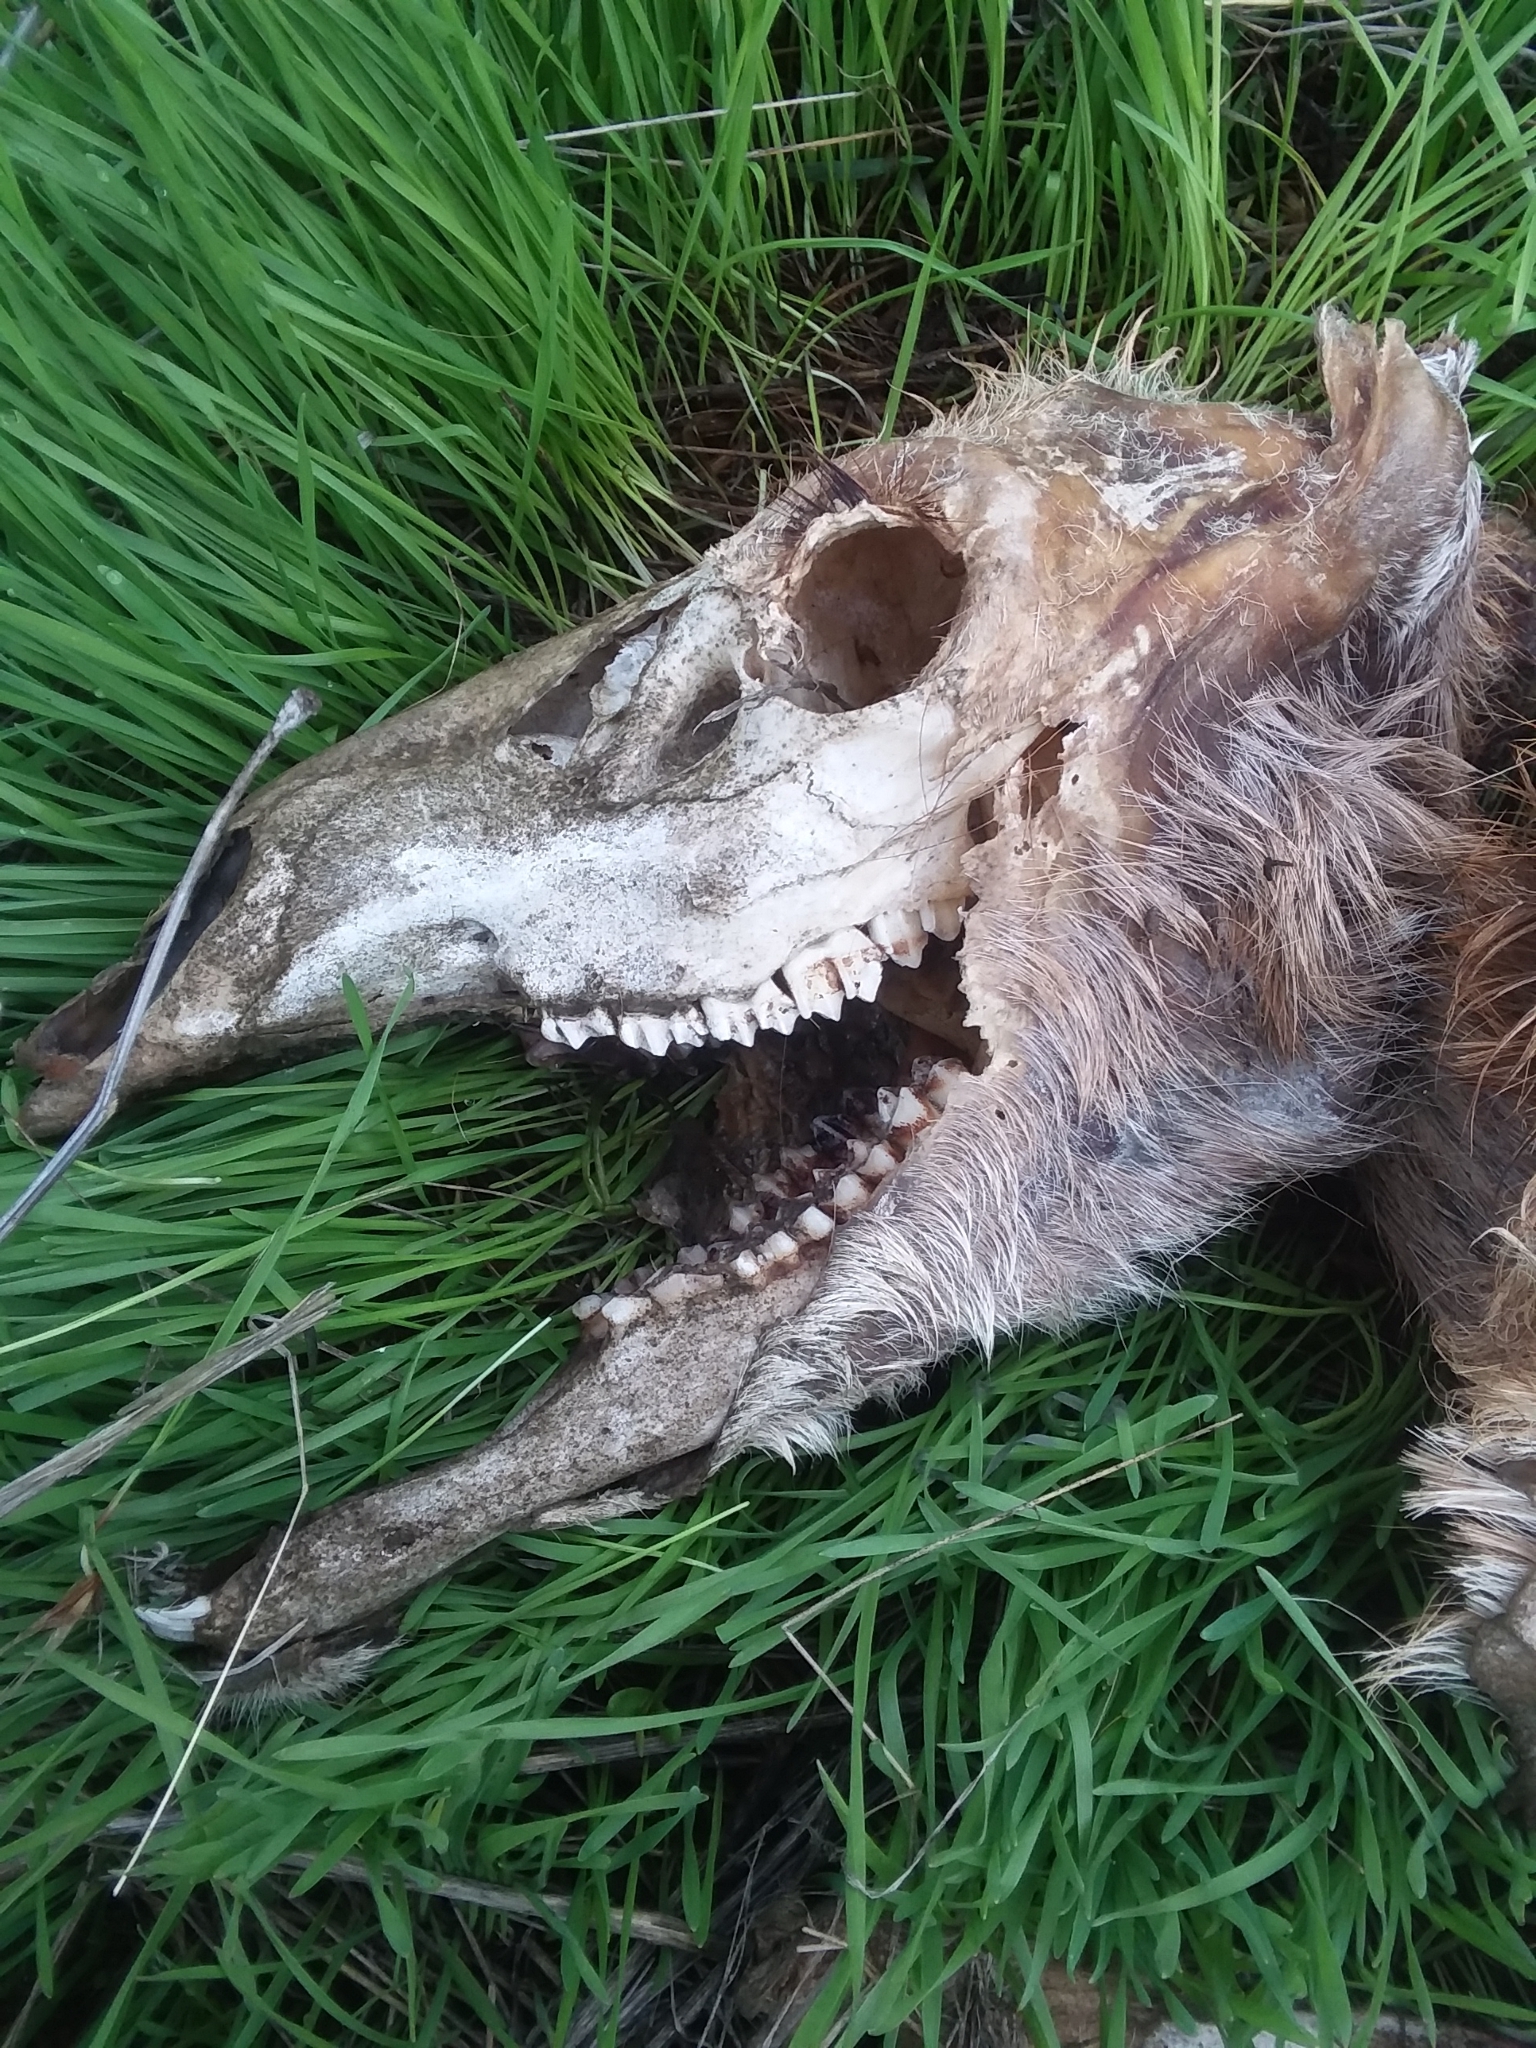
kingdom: Animalia
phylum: Chordata
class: Mammalia
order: Artiodactyla
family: Cervidae
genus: Odocoileus
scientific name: Odocoileus hemionus
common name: Mule deer
